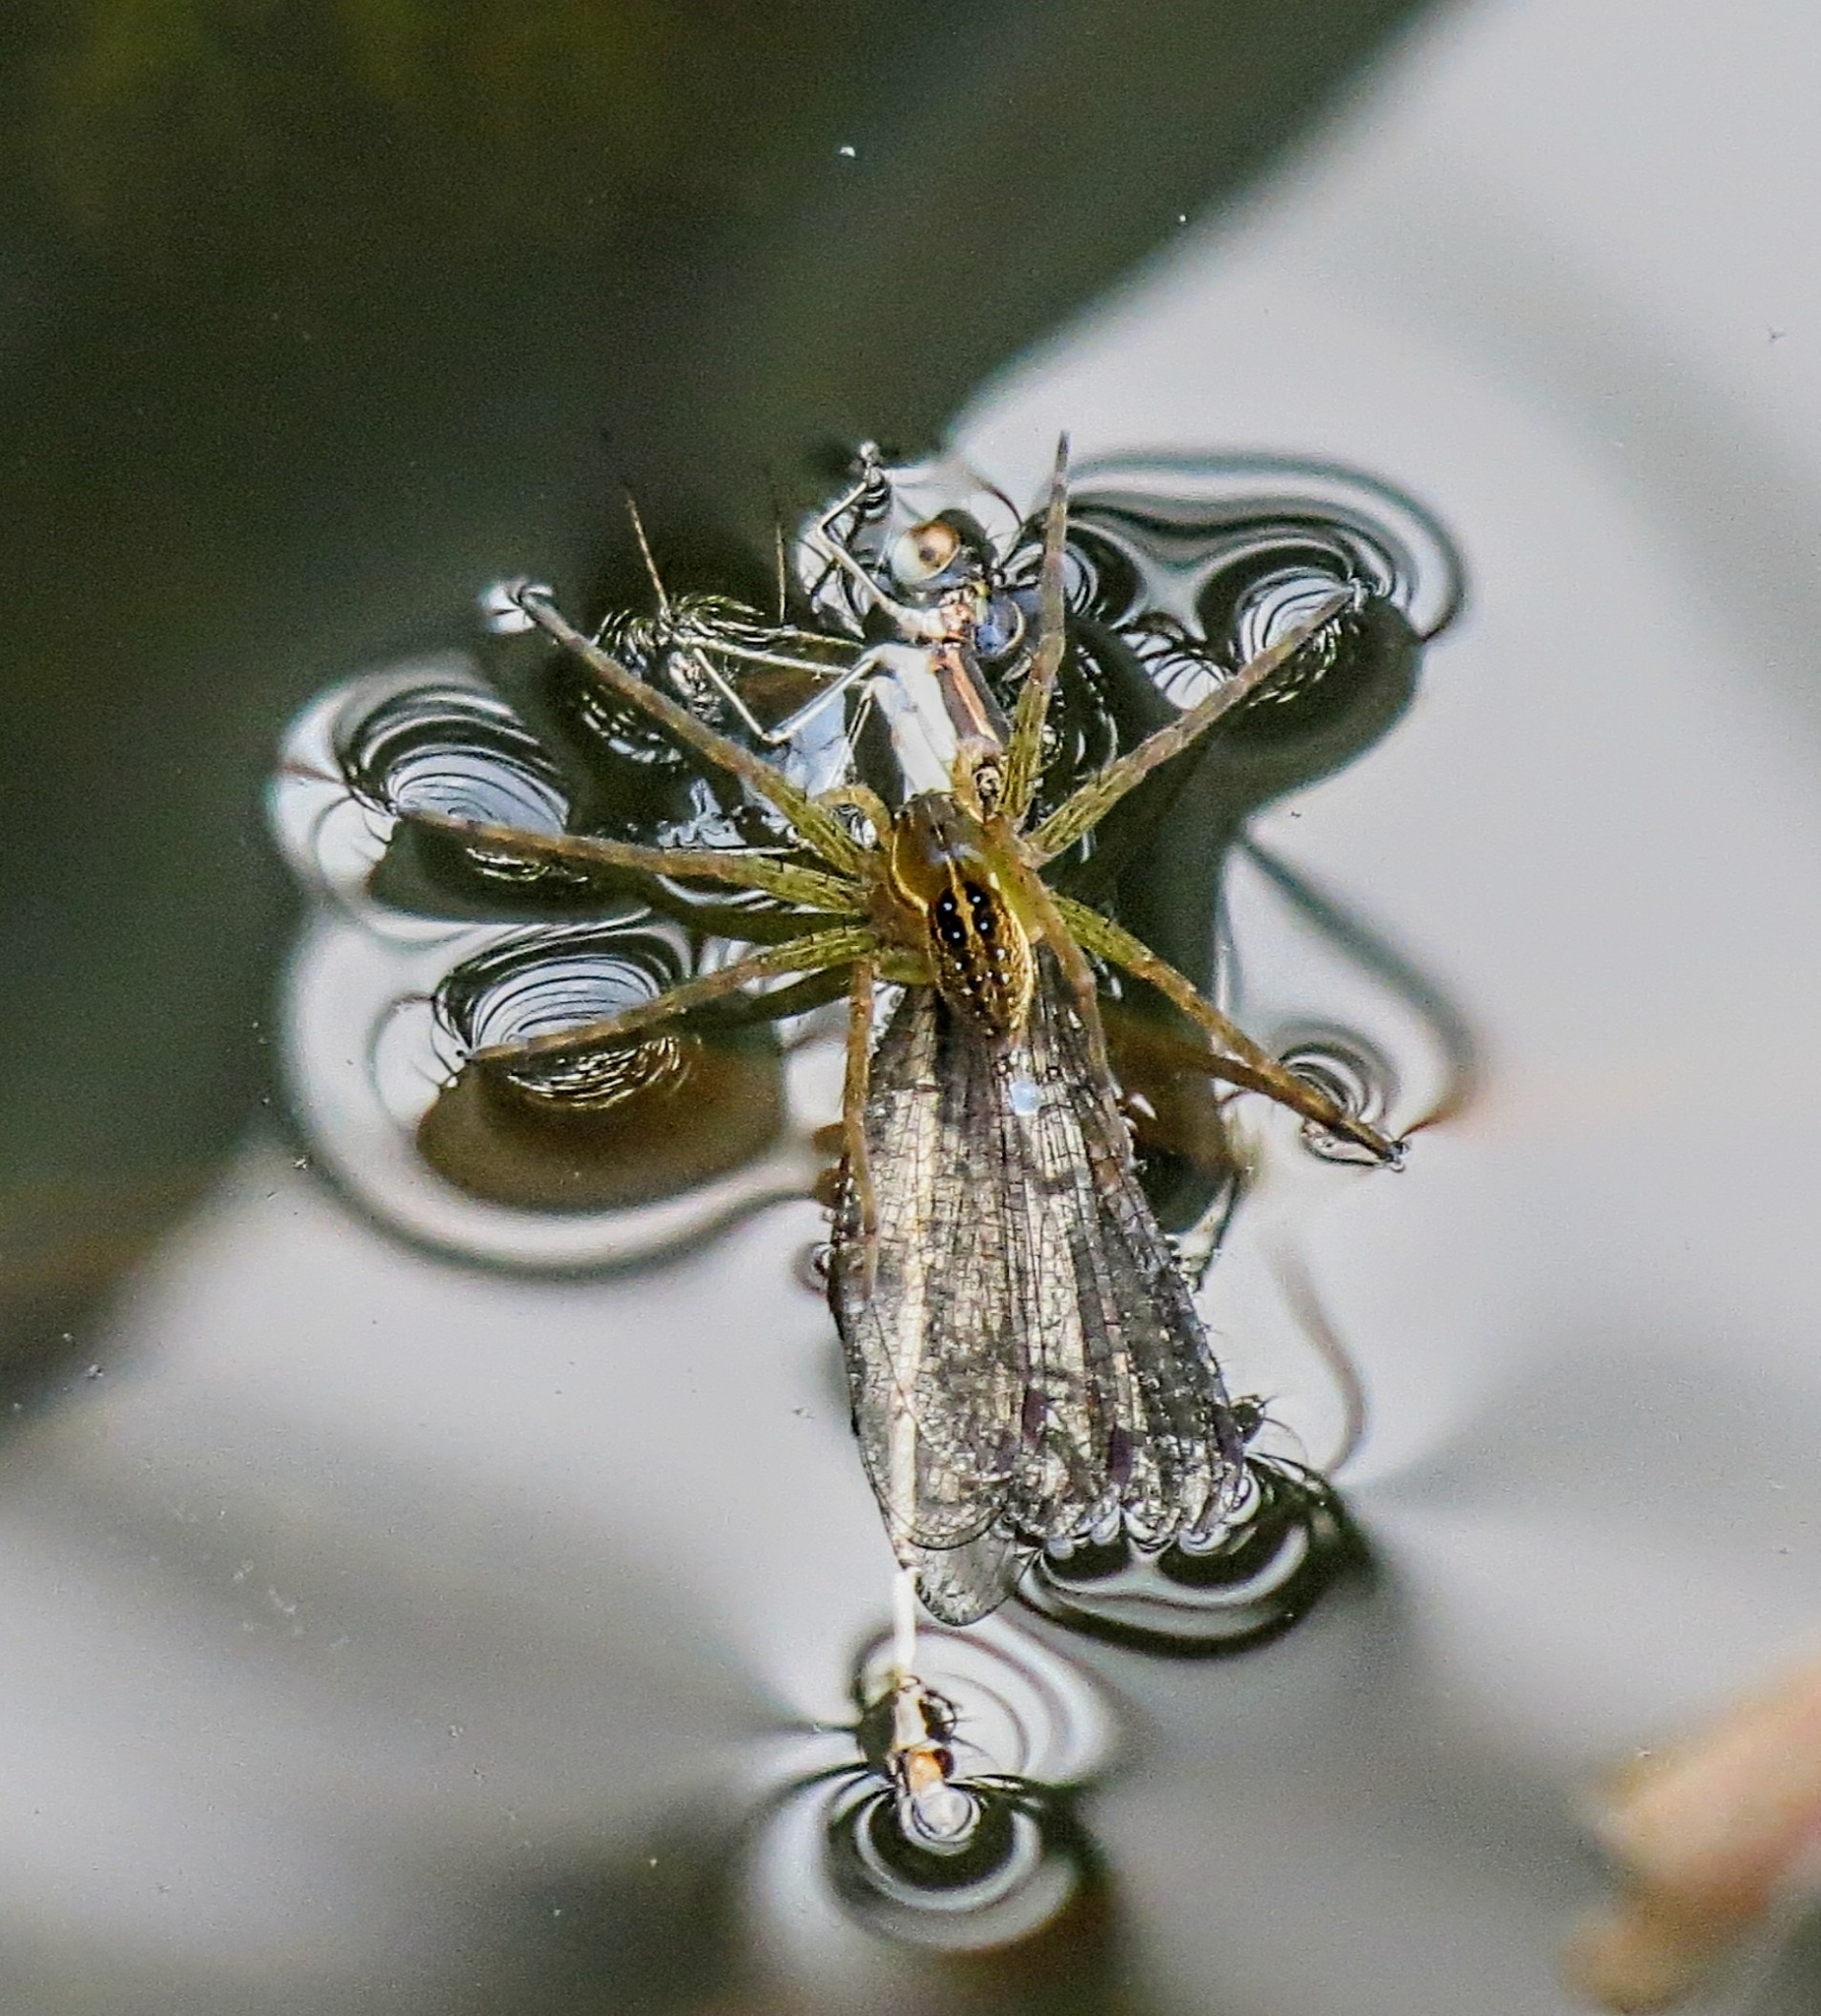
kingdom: Animalia
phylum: Arthropoda
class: Arachnida
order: Araneae
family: Pisauridae
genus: Dolomedes
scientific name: Dolomedes triton
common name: Six-spotted fishing spider
